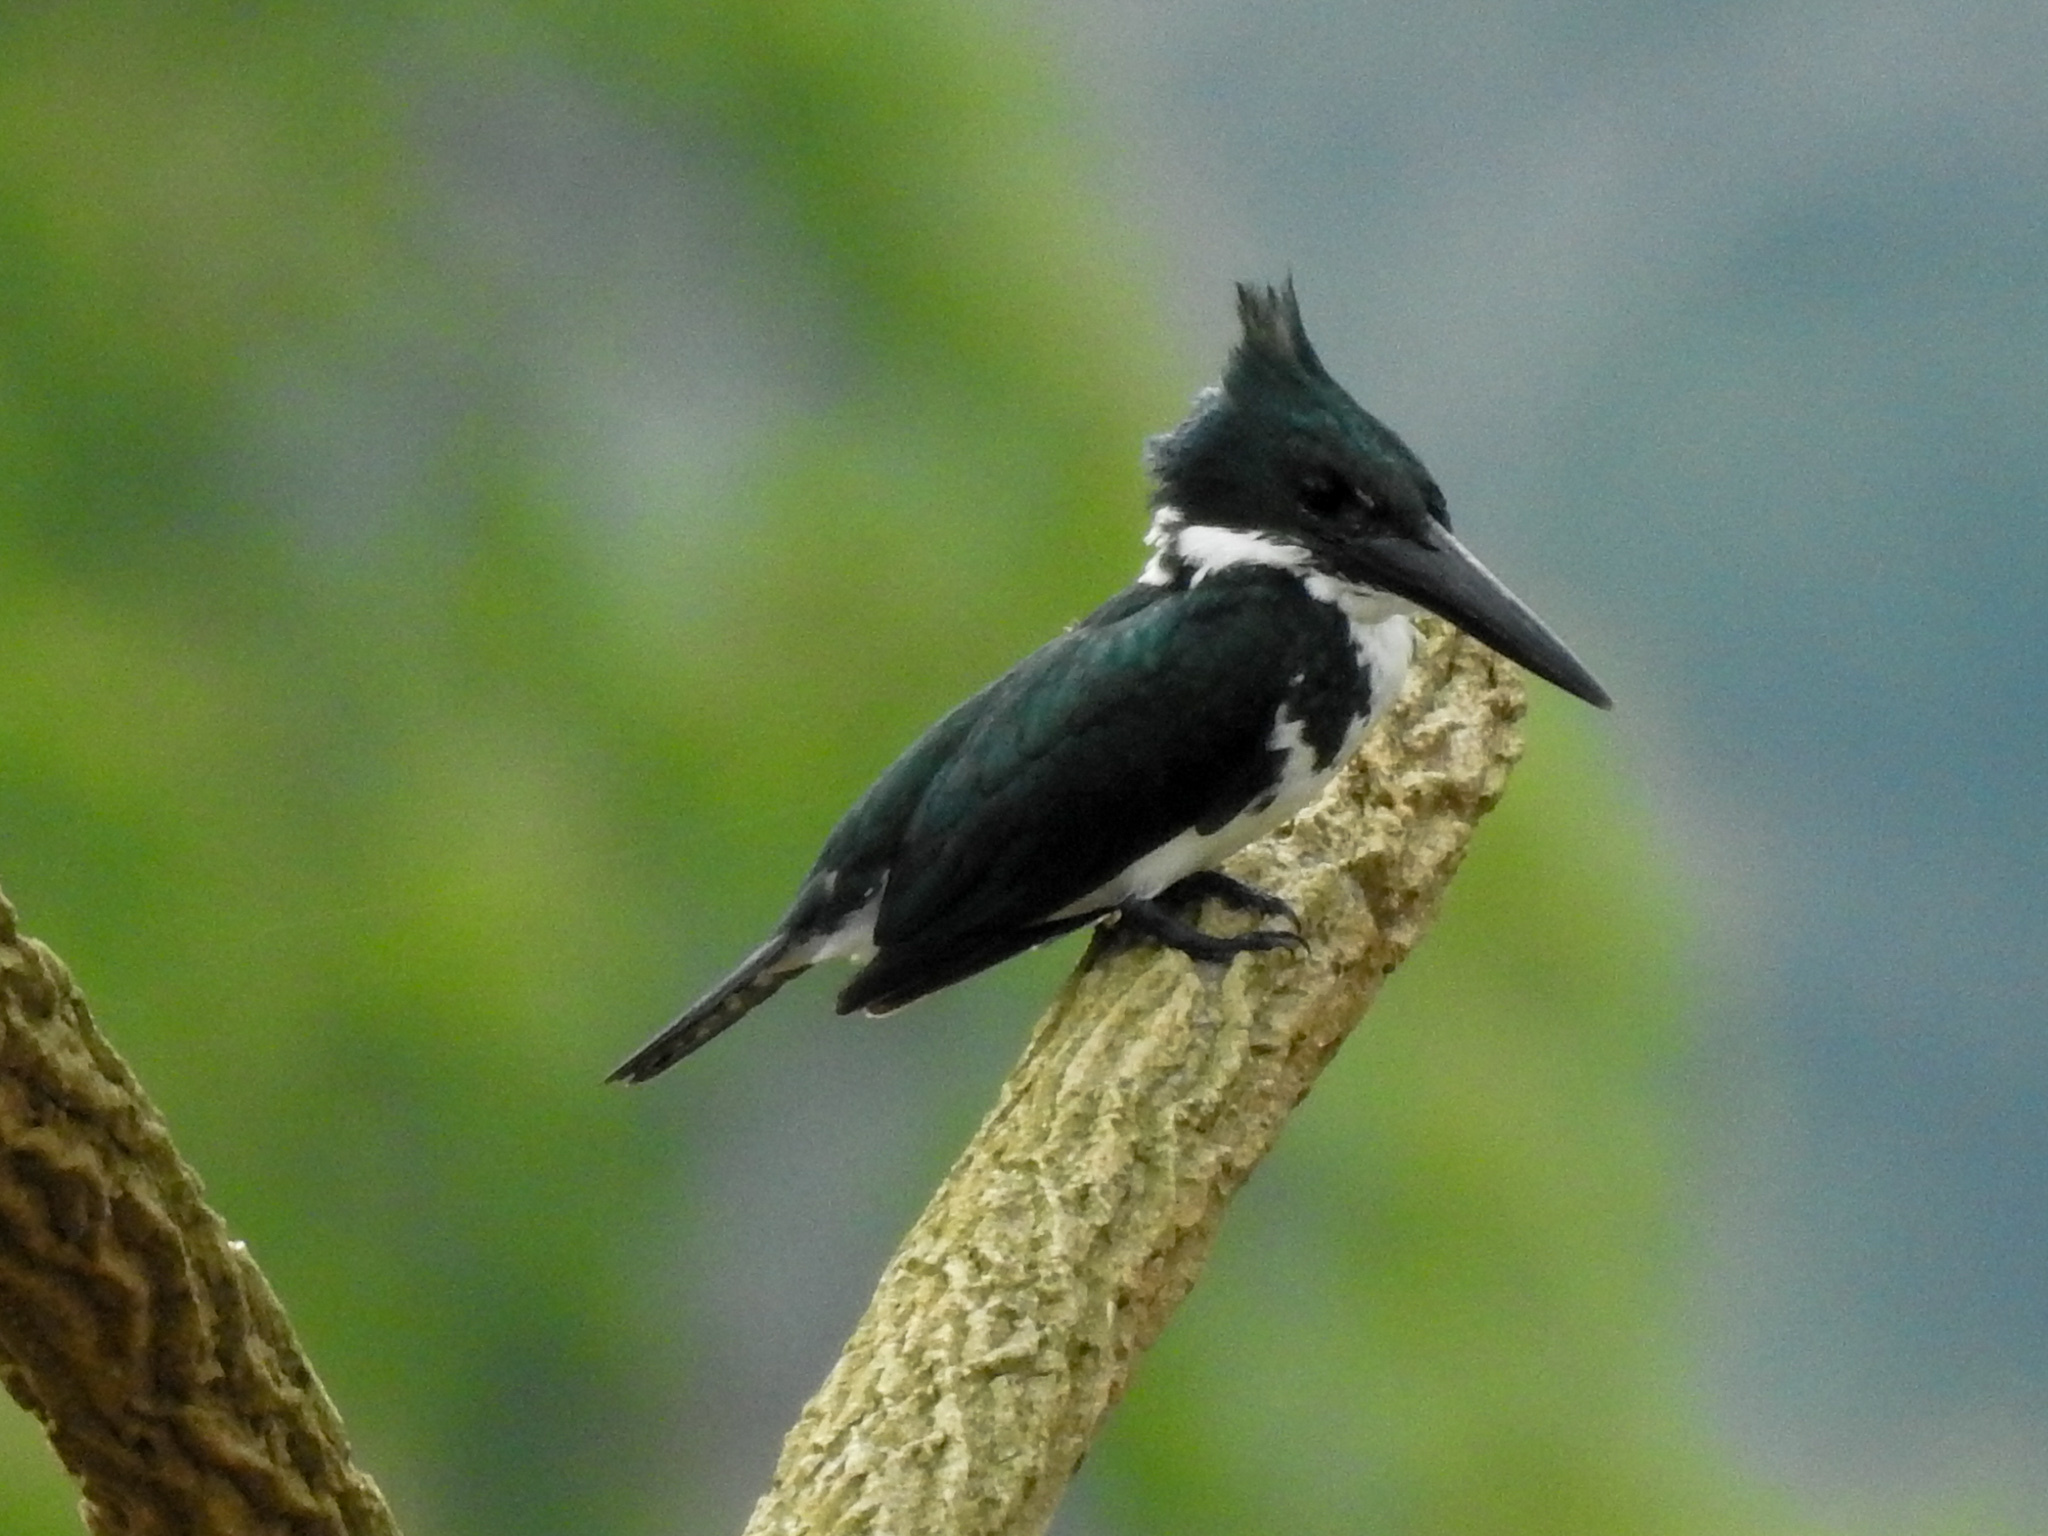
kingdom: Animalia
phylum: Chordata
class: Aves
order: Coraciiformes
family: Alcedinidae
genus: Chloroceryle
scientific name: Chloroceryle amazona
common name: Amazon kingfisher
